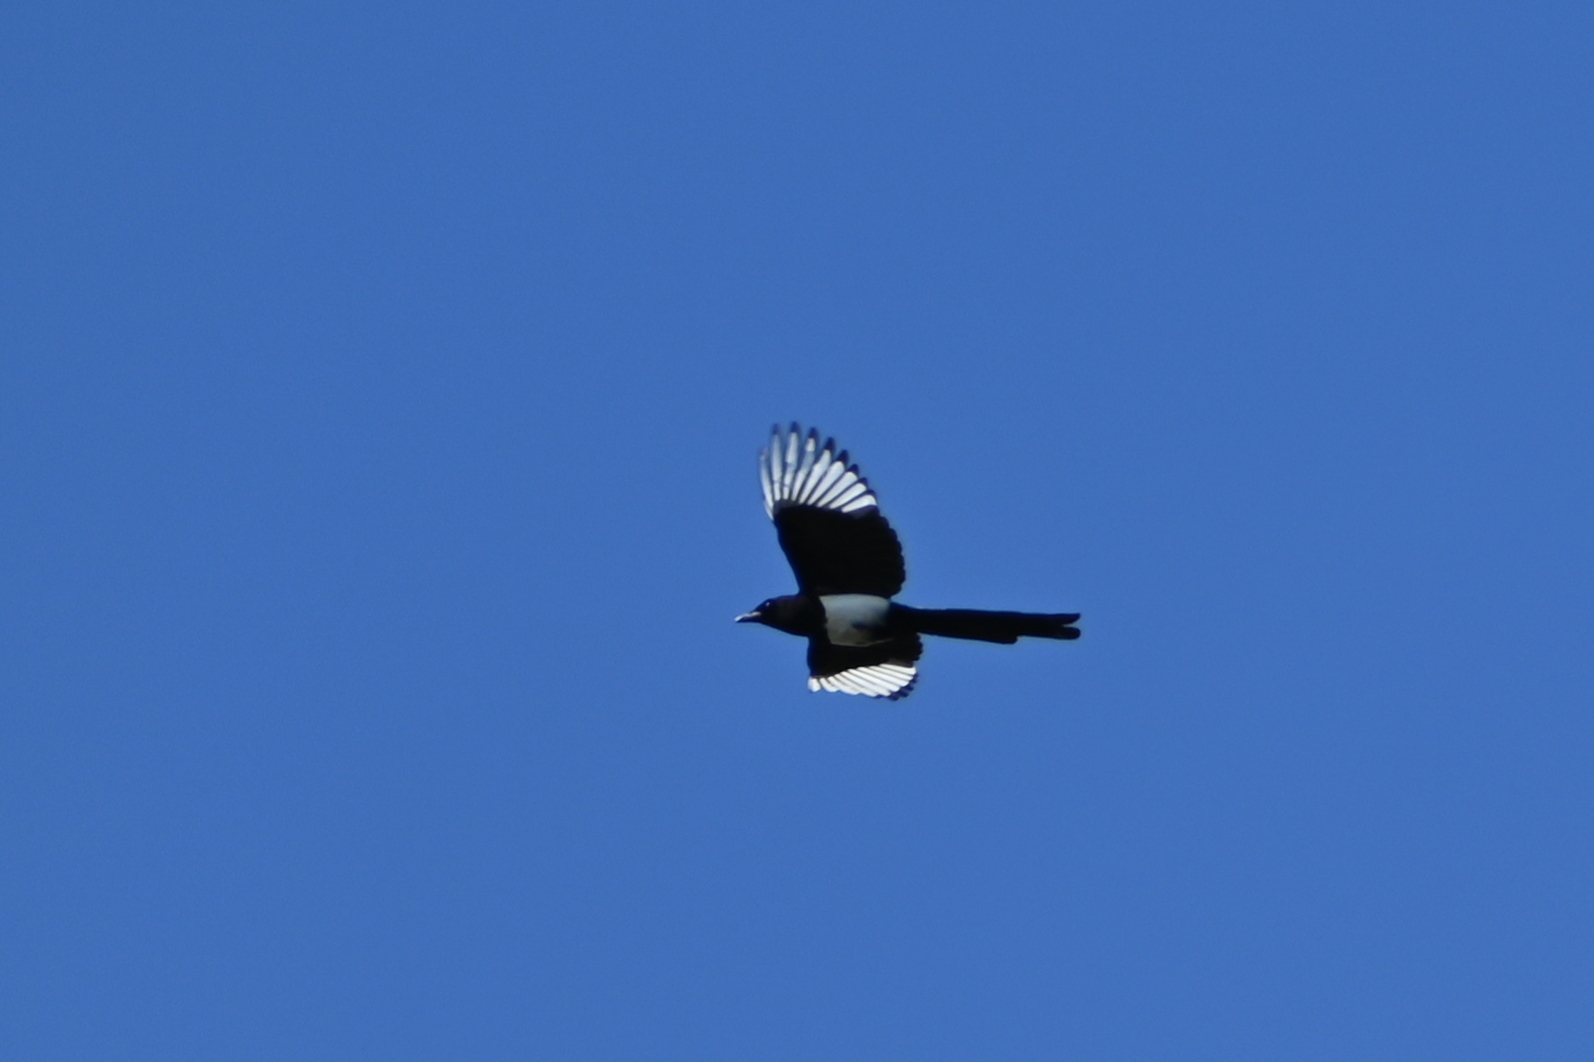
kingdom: Animalia
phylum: Chordata
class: Aves
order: Passeriformes
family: Corvidae
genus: Pica
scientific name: Pica pica
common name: Eurasian magpie
